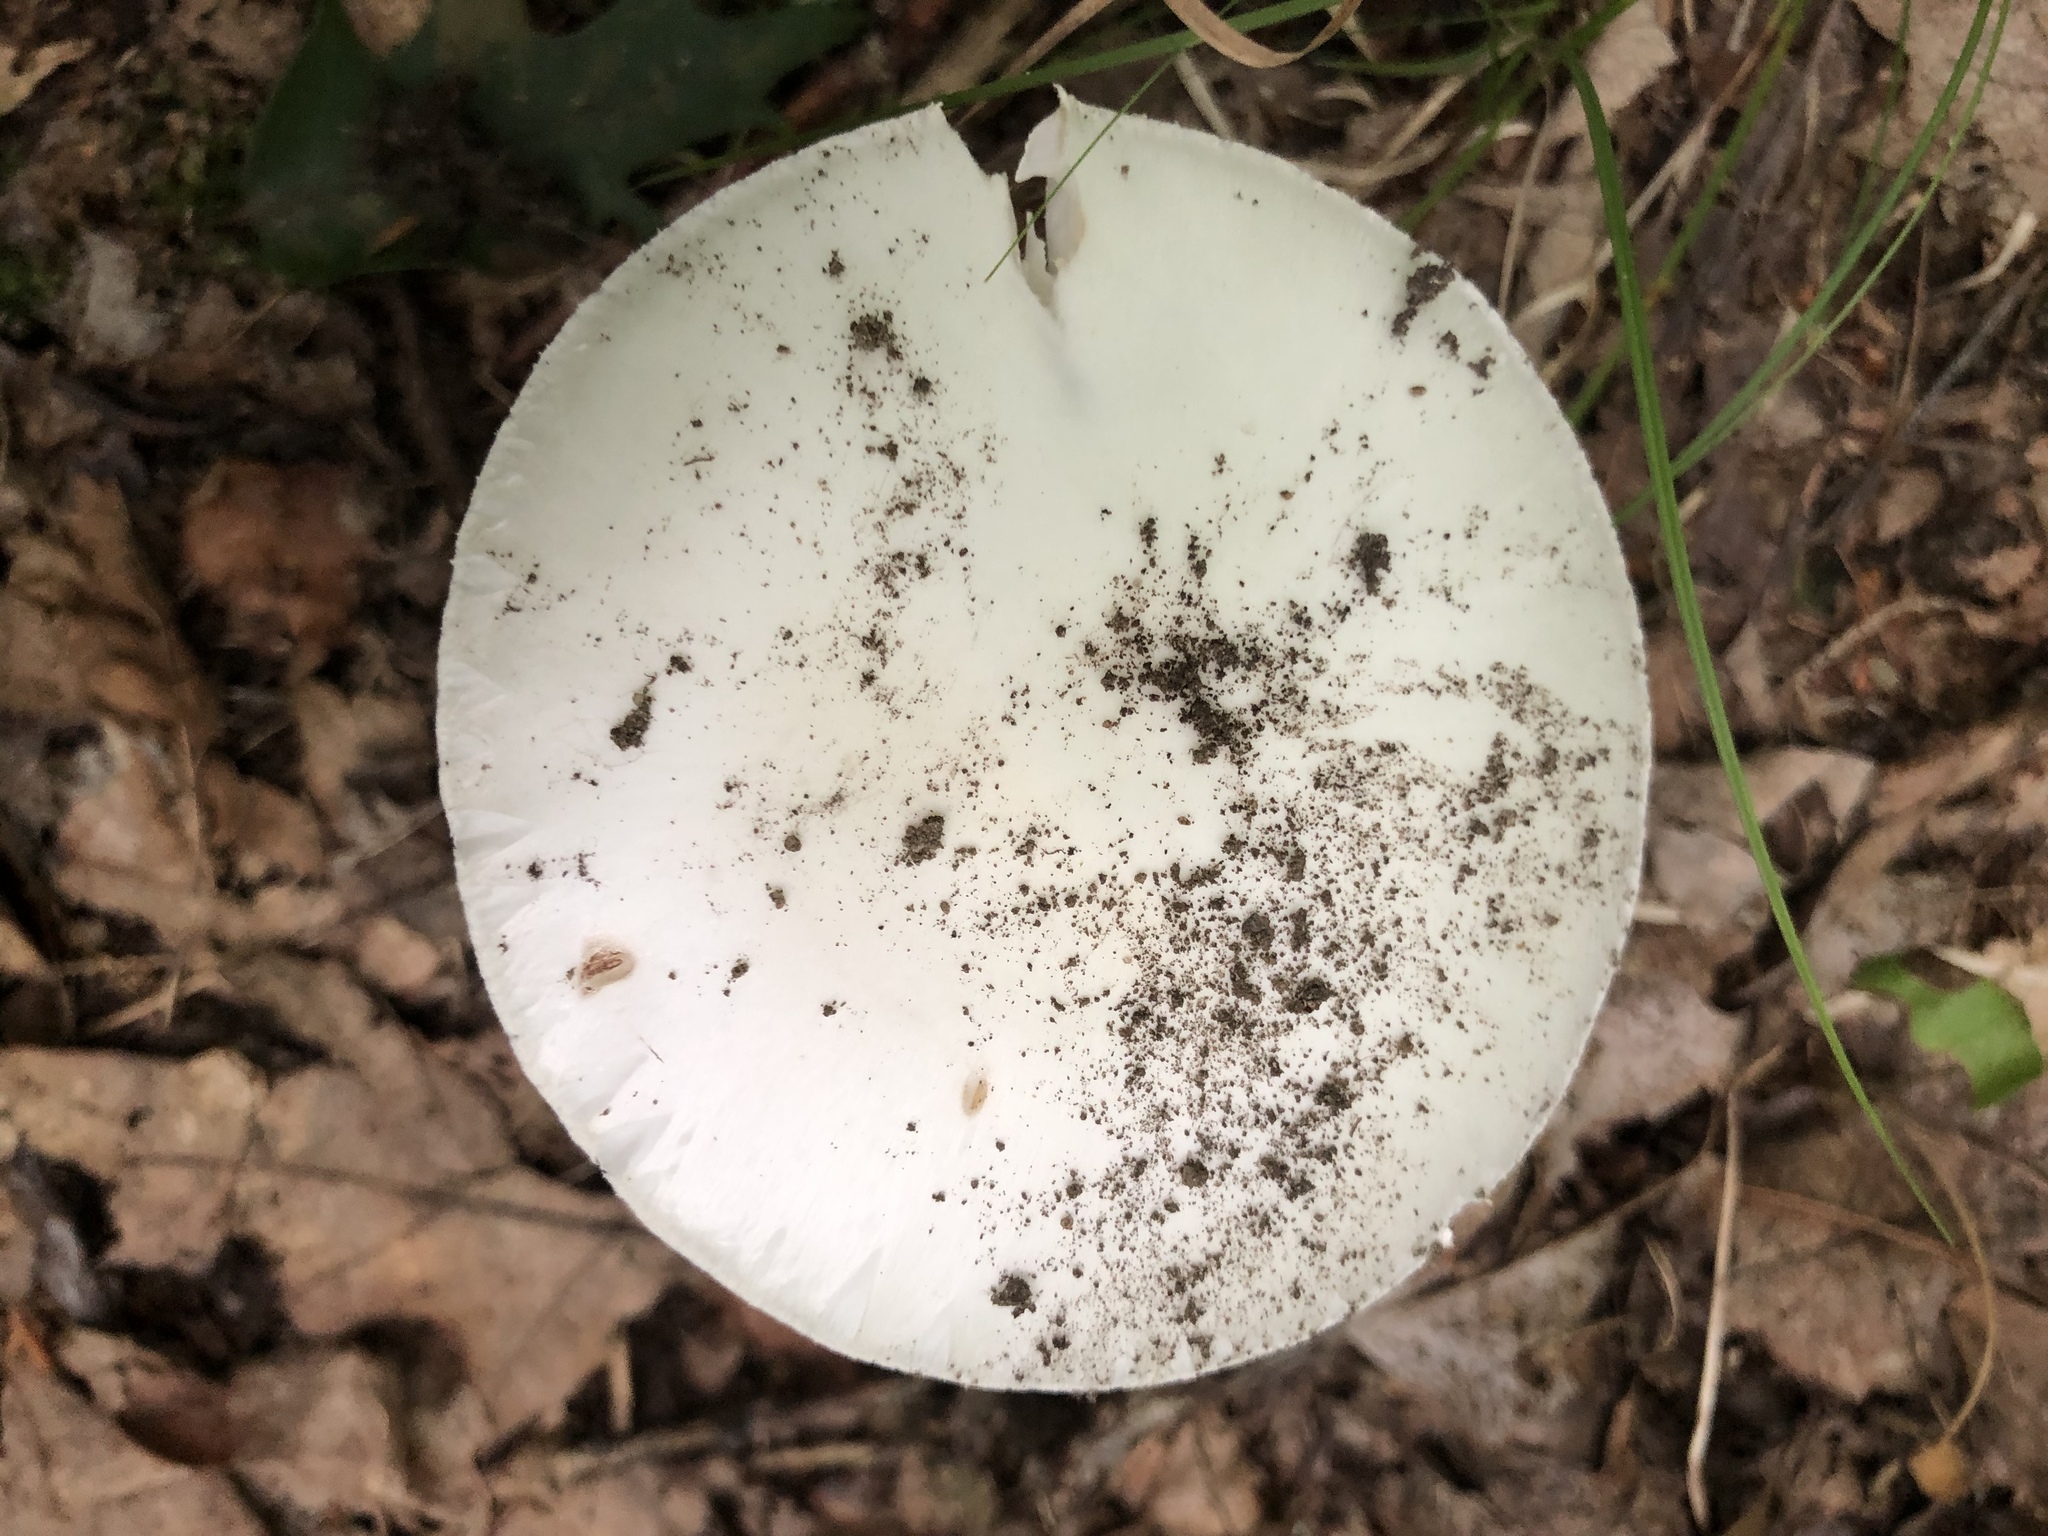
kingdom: Fungi
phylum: Basidiomycota
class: Agaricomycetes
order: Agaricales
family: Amanitaceae
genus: Amanita
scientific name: Amanita bisporigera
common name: Eastern north american destroying angel
